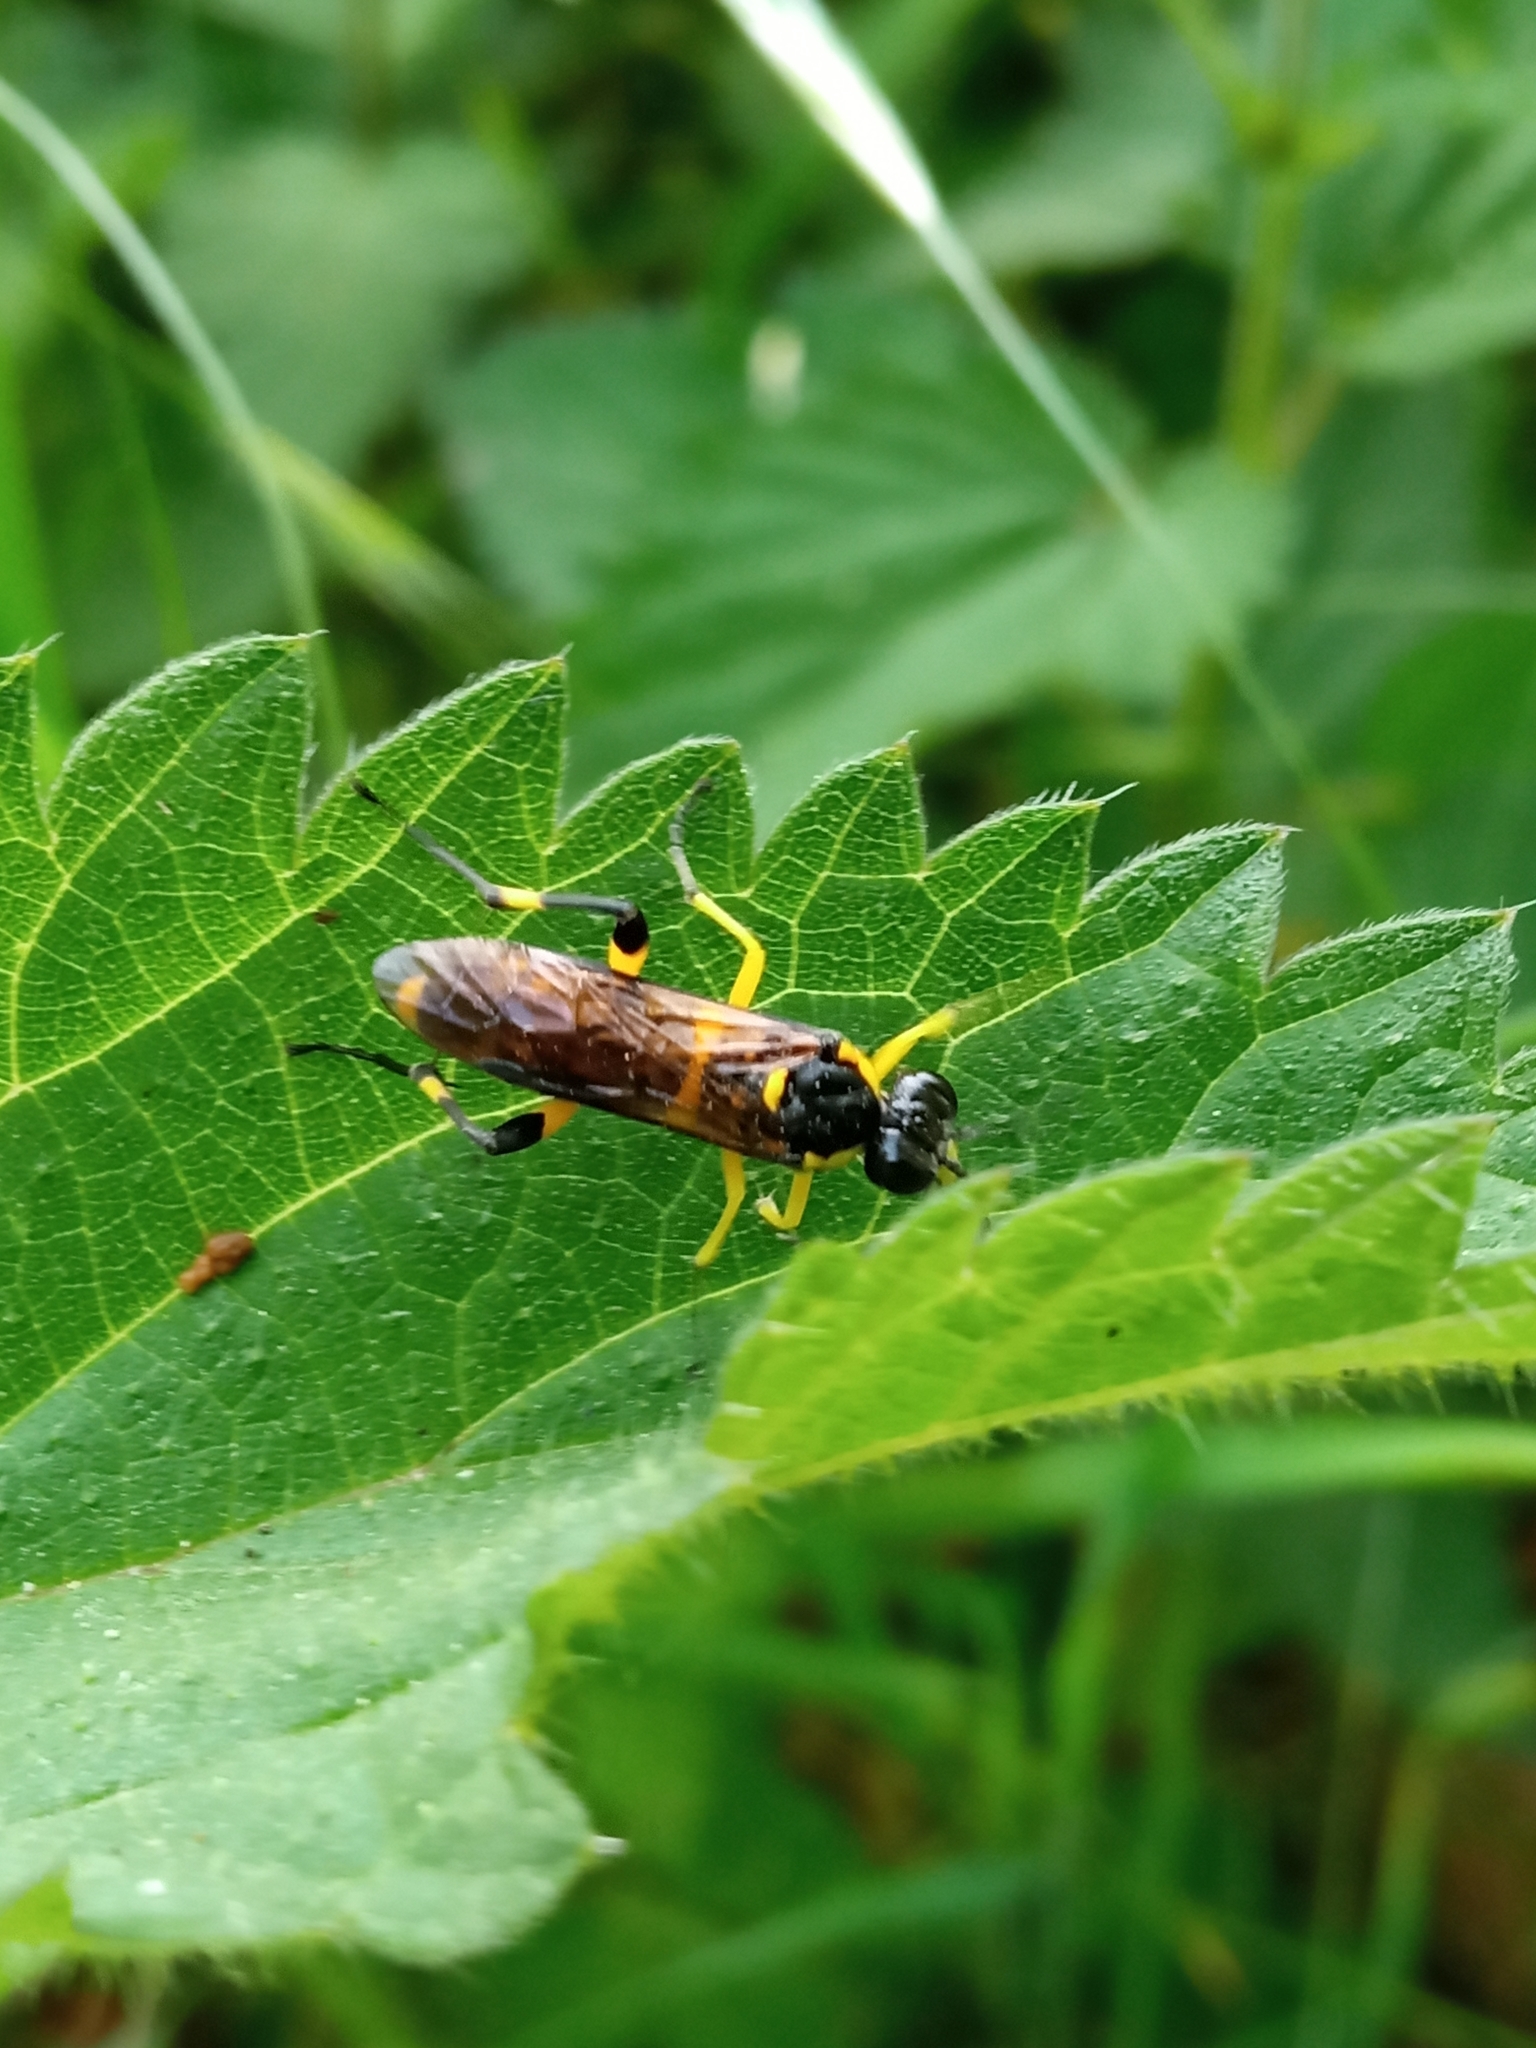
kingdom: Animalia
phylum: Arthropoda
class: Insecta
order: Hymenoptera
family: Tenthredinidae
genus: Macrophya
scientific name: Macrophya montana
